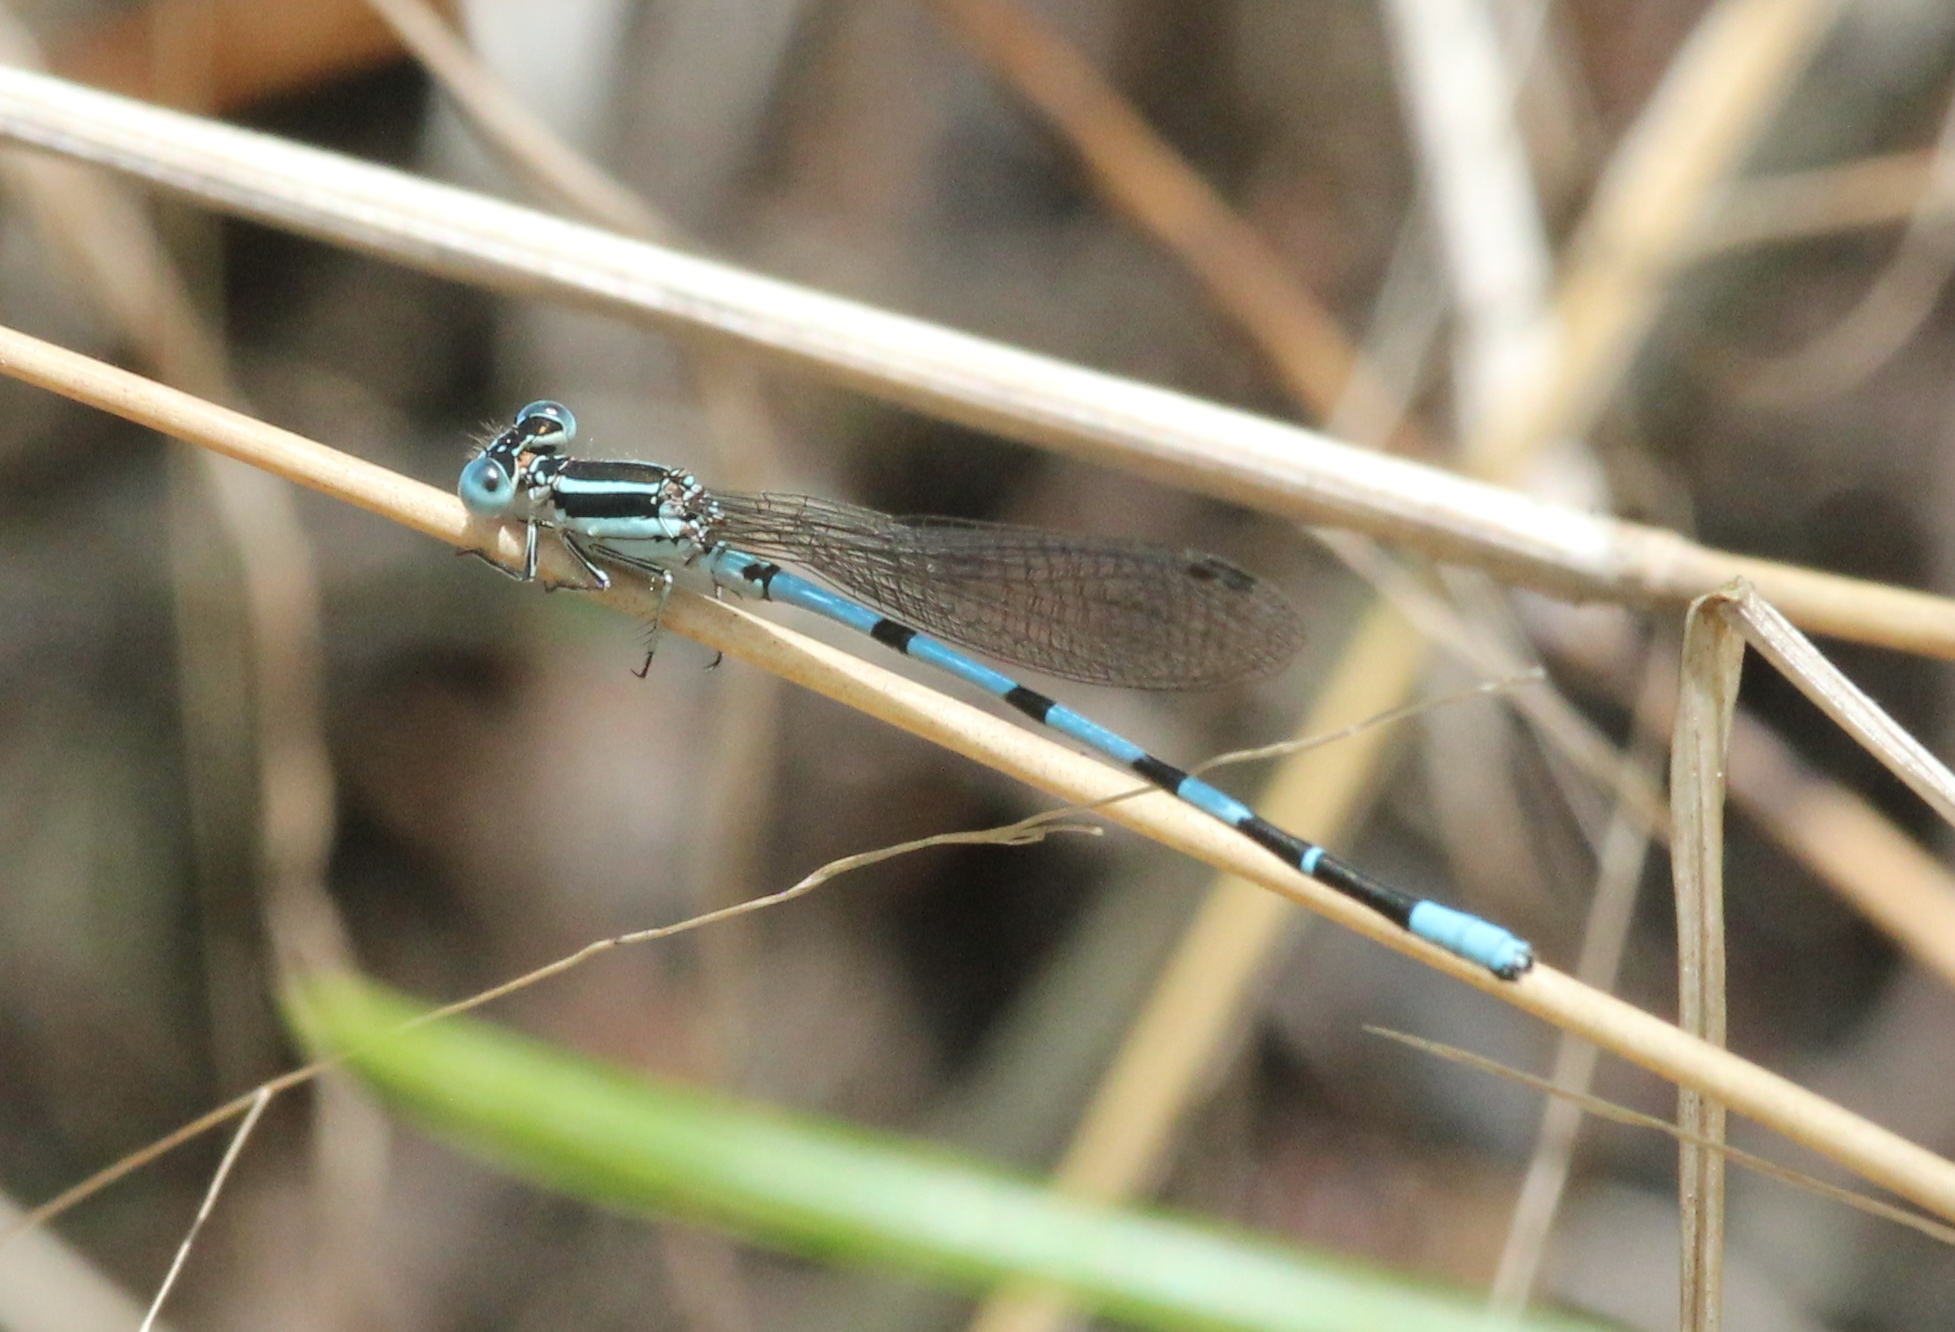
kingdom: Animalia
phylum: Arthropoda
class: Insecta
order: Odonata
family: Coenagrionidae
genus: Argia
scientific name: Argia bipunctulata
